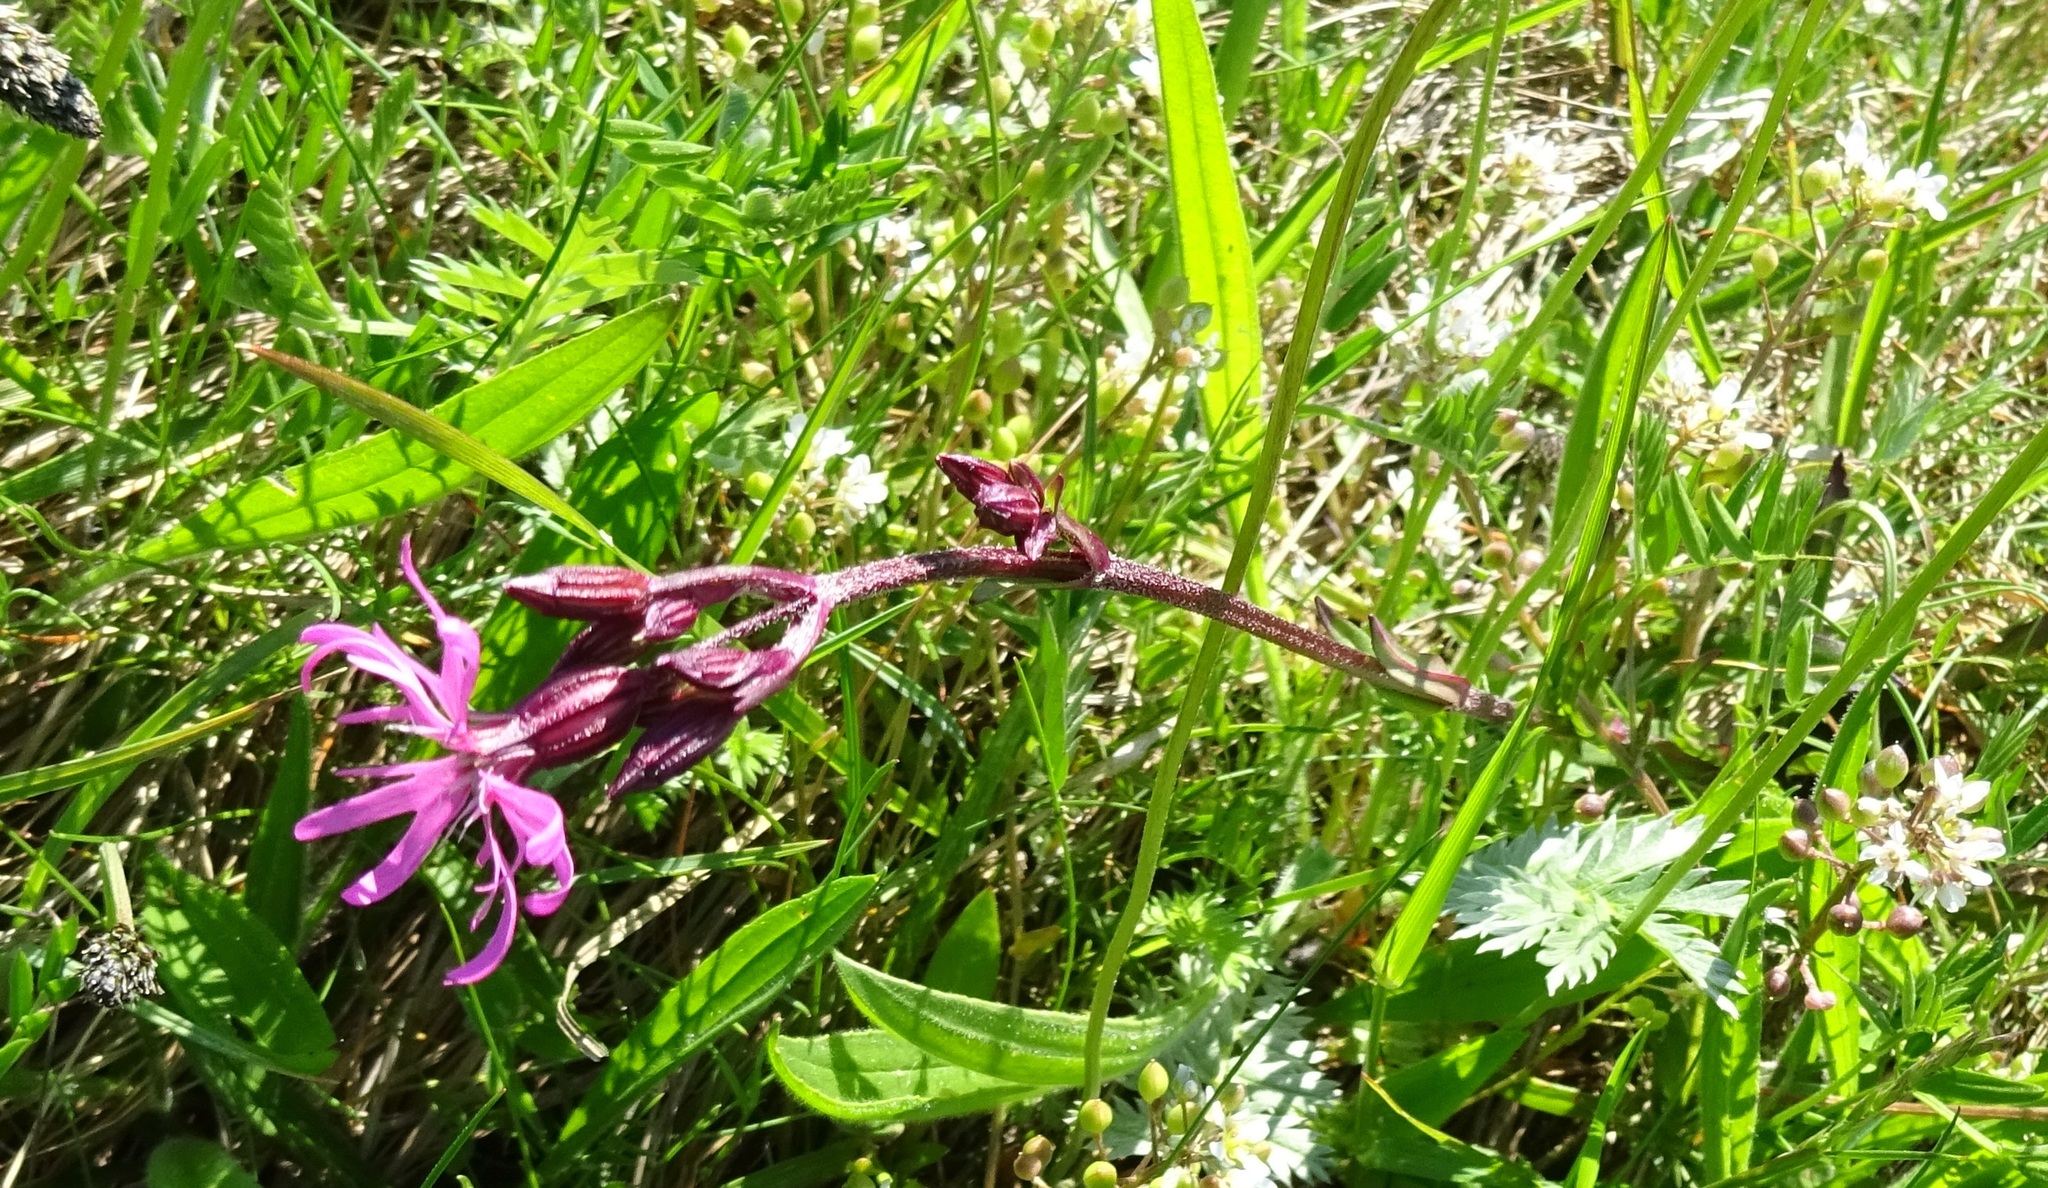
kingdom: Plantae
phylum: Tracheophyta
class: Magnoliopsida
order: Caryophyllales
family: Caryophyllaceae
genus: Silene
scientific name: Silene flos-cuculi
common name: Ragged-robin
